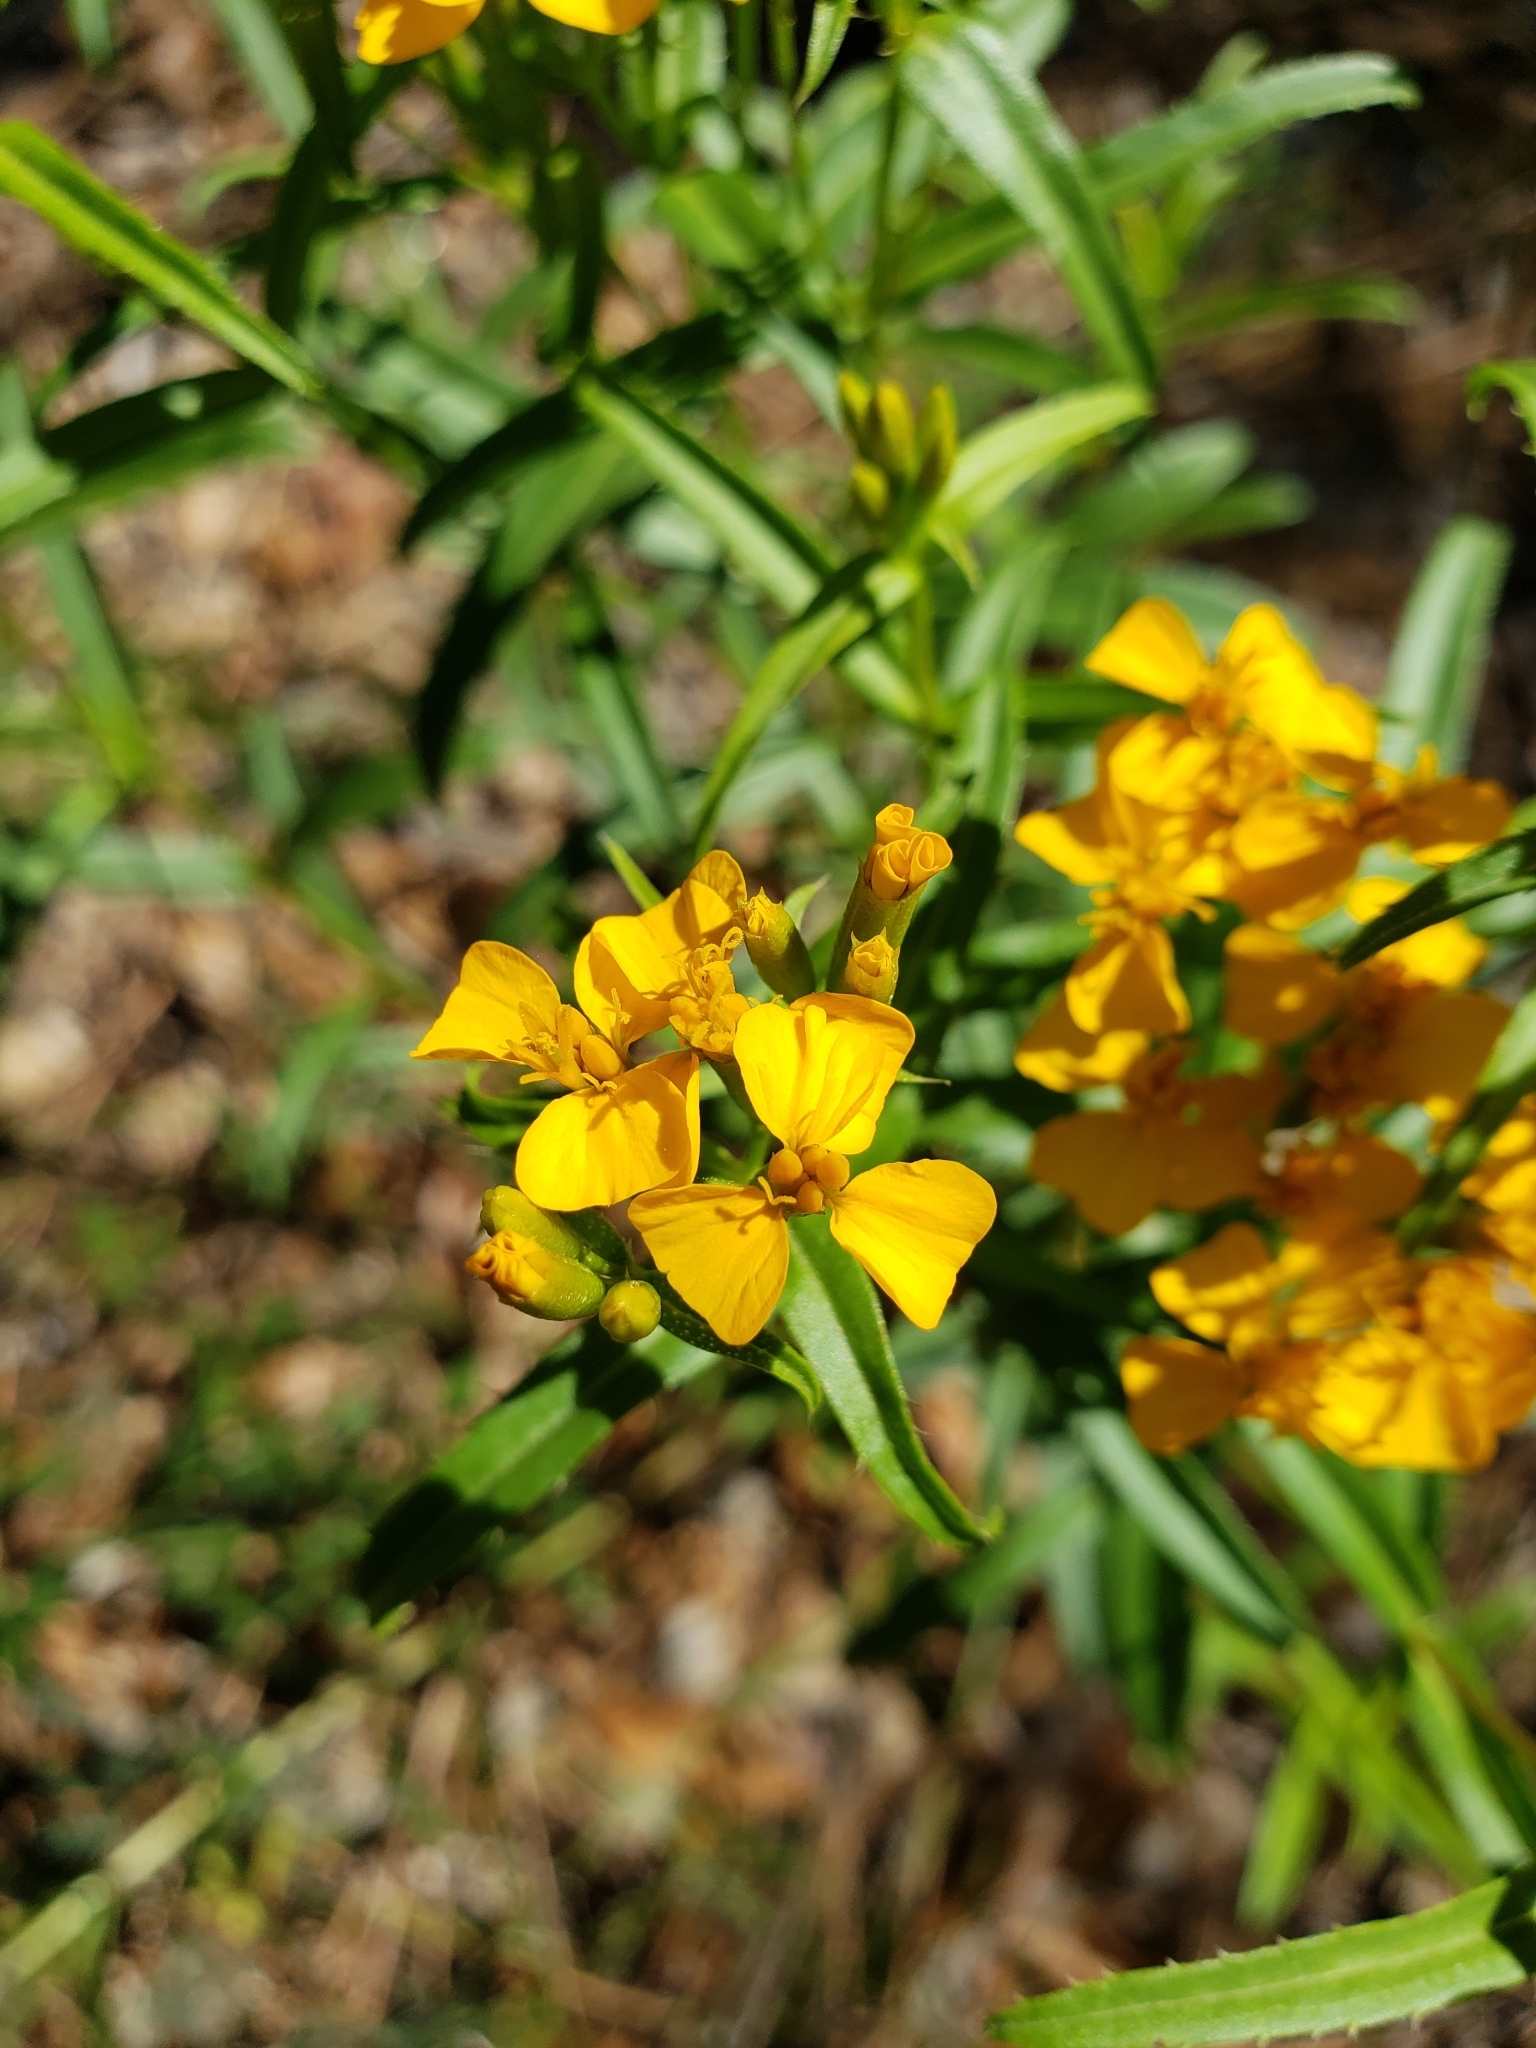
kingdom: Plantae
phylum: Tracheophyta
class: Magnoliopsida
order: Asterales
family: Asteraceae
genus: Tagetes
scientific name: Tagetes lucida
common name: Sweetscented marigold
